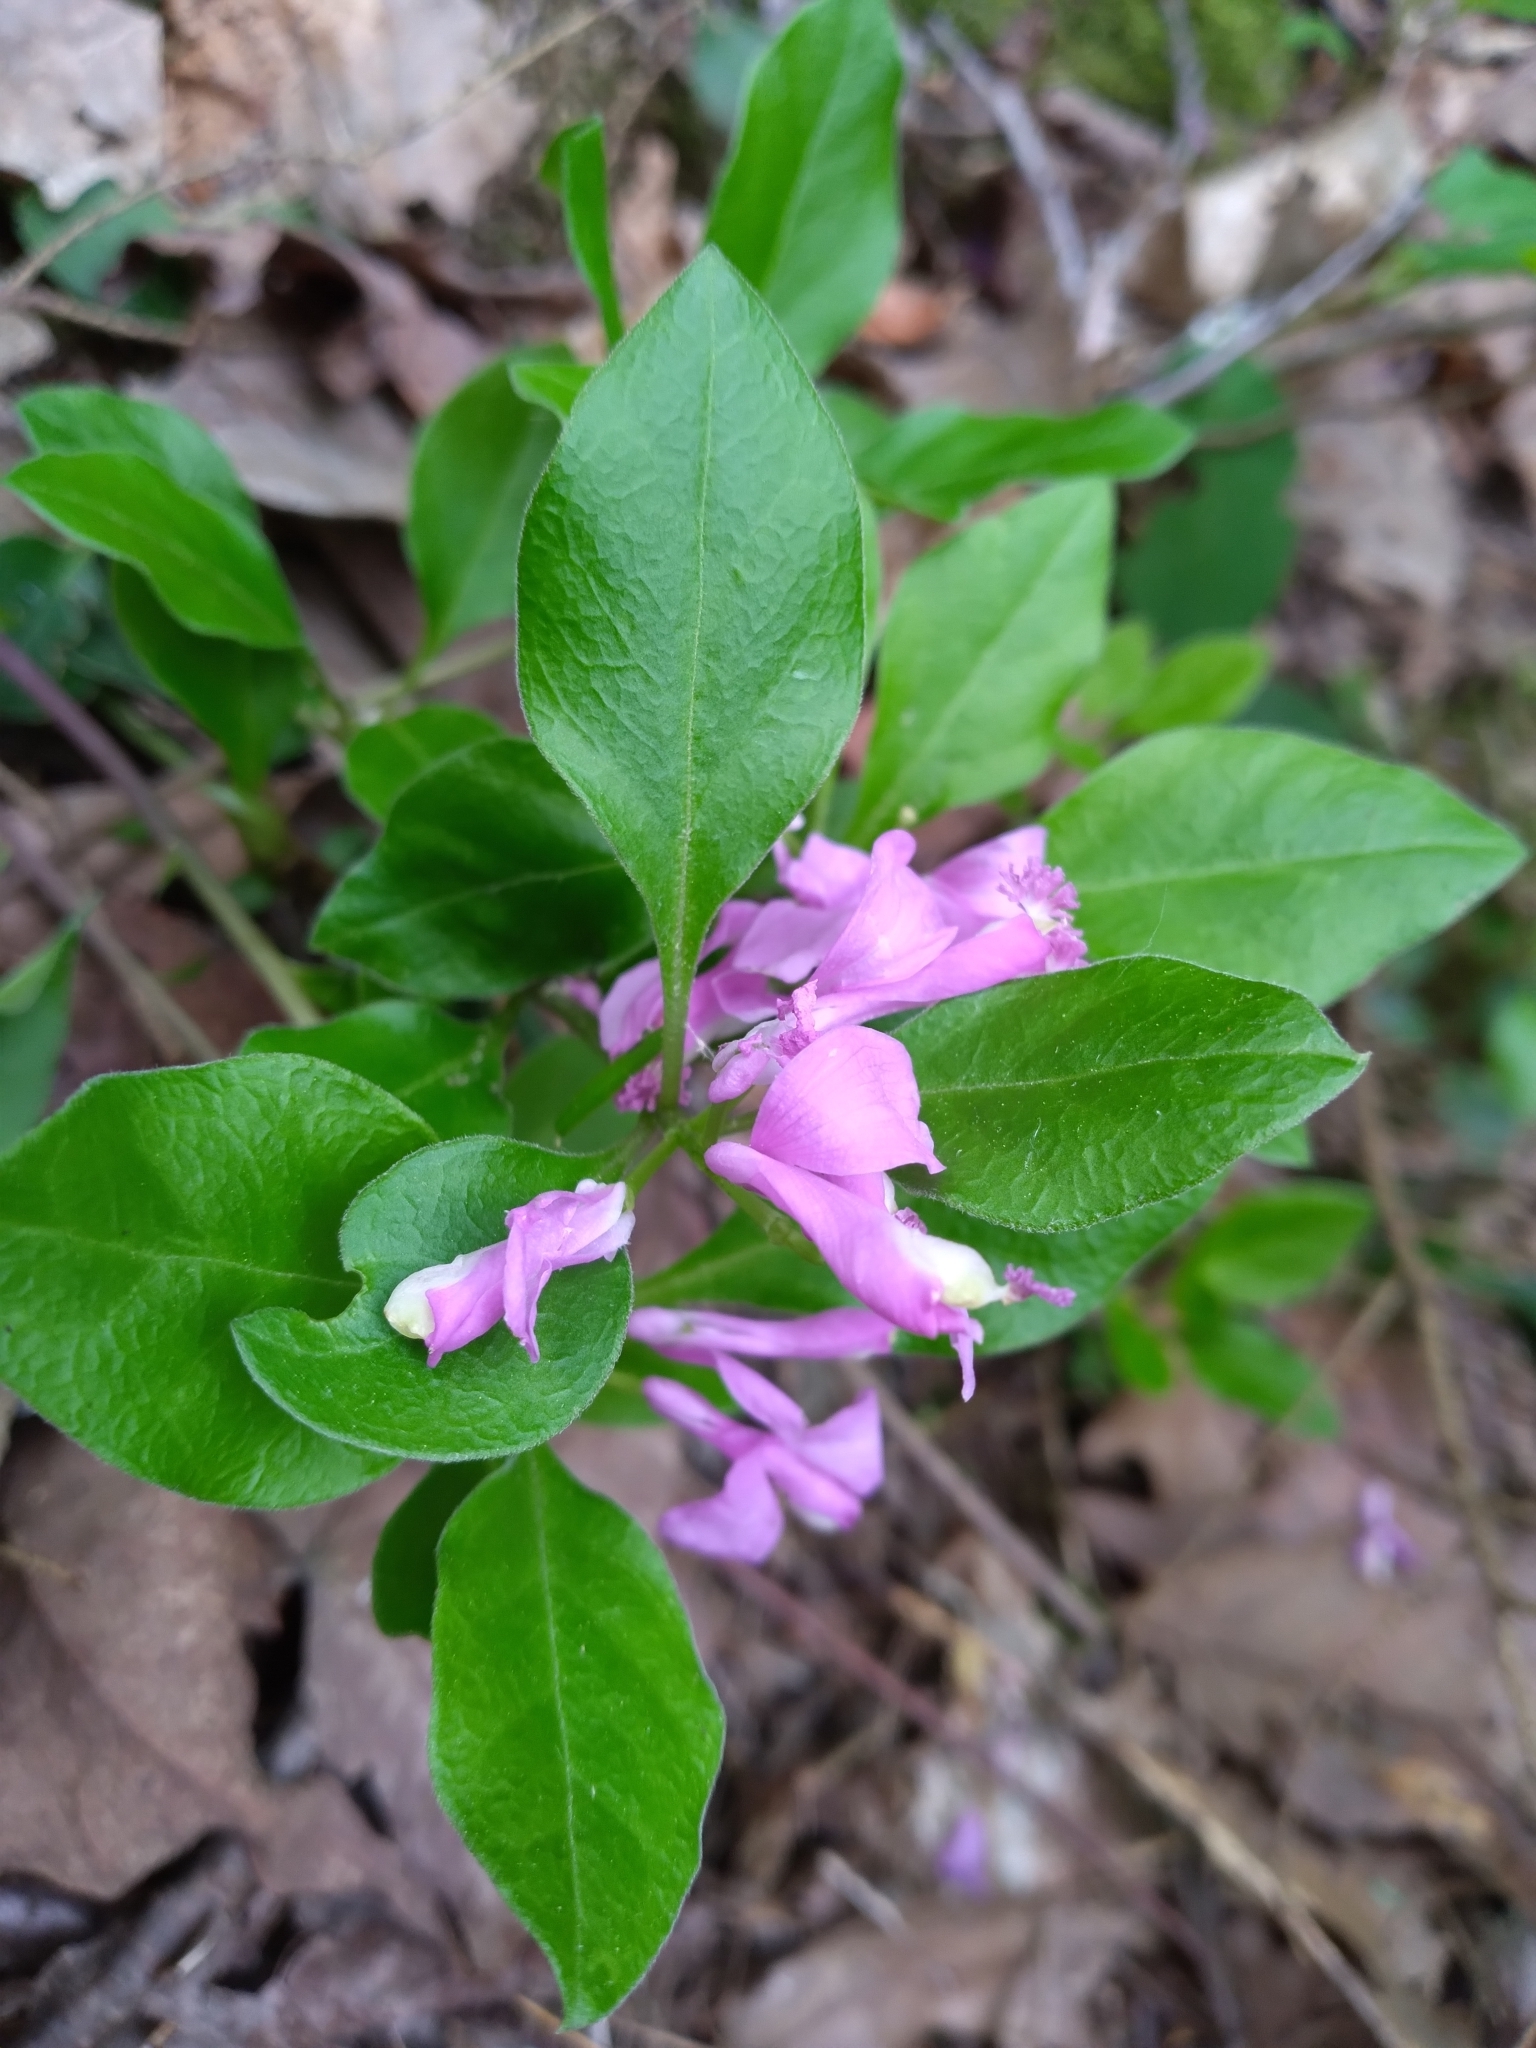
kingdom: Plantae
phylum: Tracheophyta
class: Magnoliopsida
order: Fabales
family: Polygalaceae
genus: Polygaloides
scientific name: Polygaloides paucifolia
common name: Bird-on-the-wing
